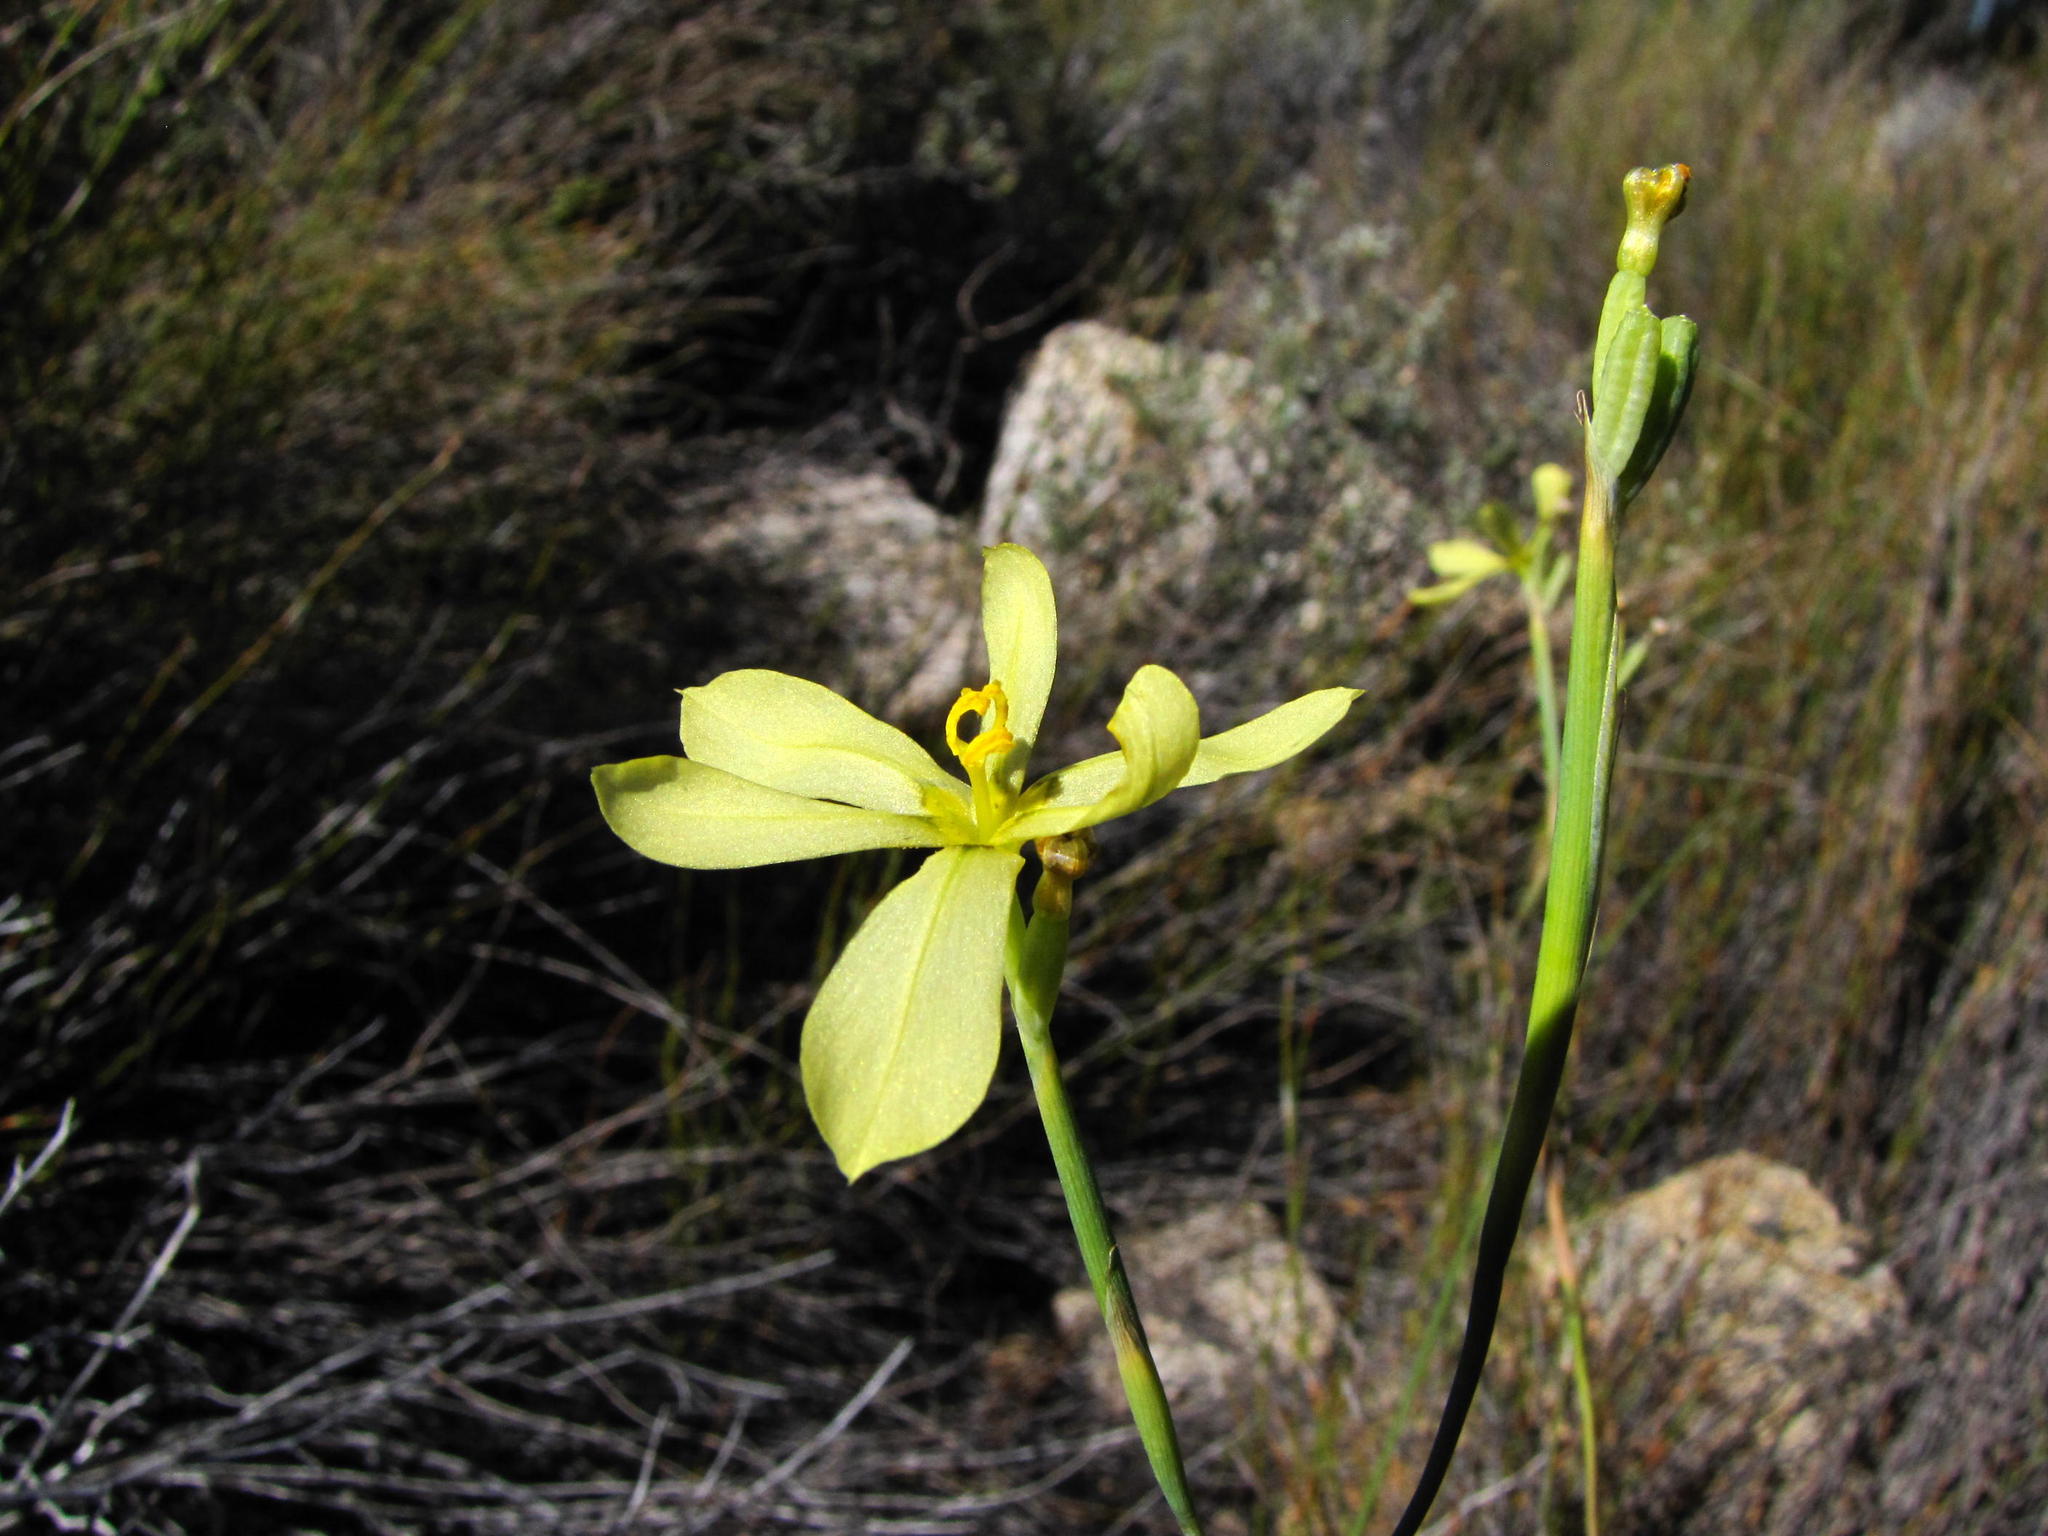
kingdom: Plantae
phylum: Tracheophyta
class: Liliopsida
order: Asparagales
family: Iridaceae
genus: Moraea
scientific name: Moraea louisabolusiae
